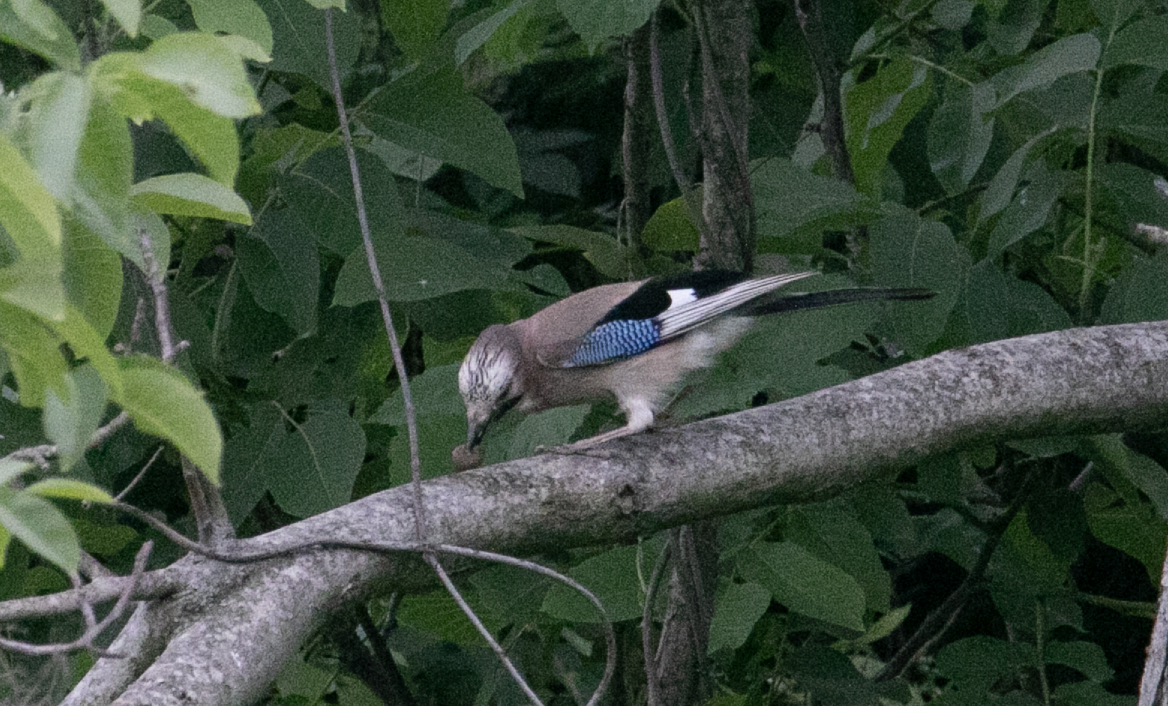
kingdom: Animalia
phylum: Chordata
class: Aves
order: Passeriformes
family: Corvidae
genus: Garrulus
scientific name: Garrulus glandarius
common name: Eurasian jay
